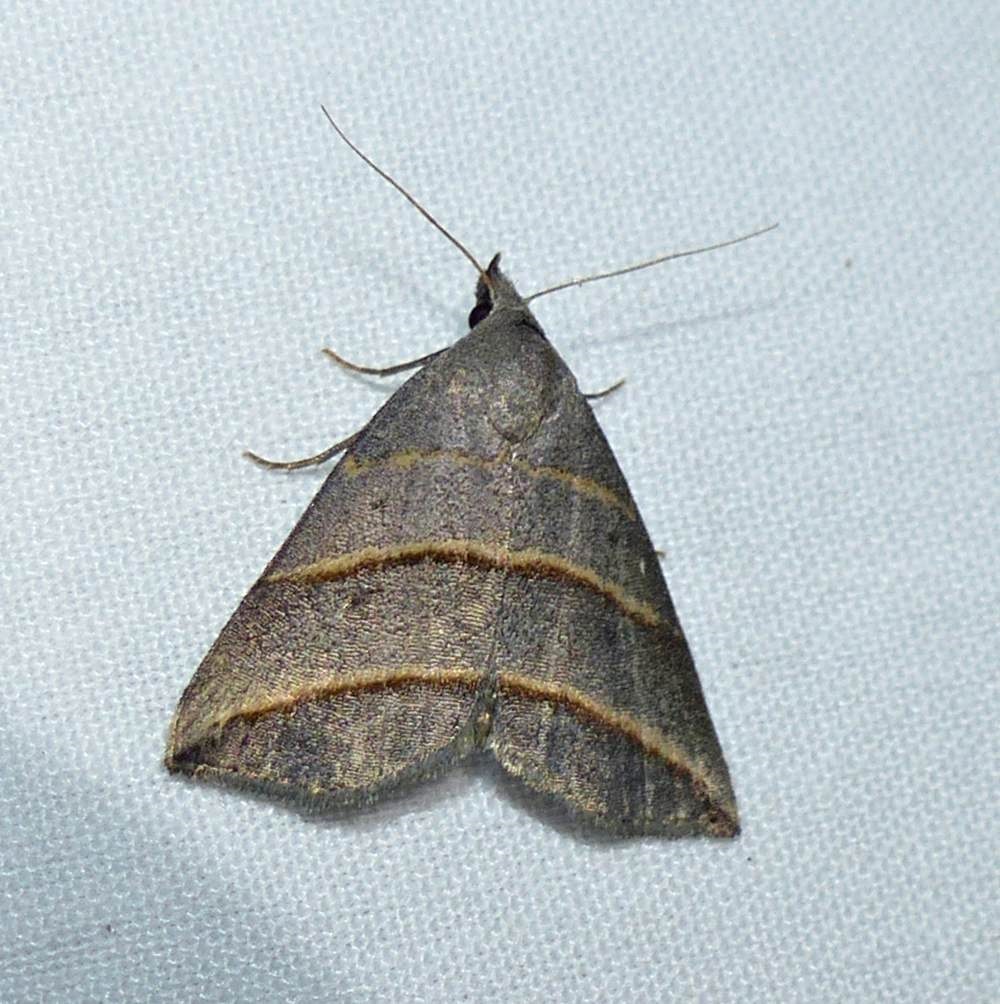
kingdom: Animalia
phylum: Arthropoda
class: Insecta
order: Lepidoptera
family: Erebidae
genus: Colobochyla
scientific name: Colobochyla interpuncta
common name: Yellow-lined owlet
